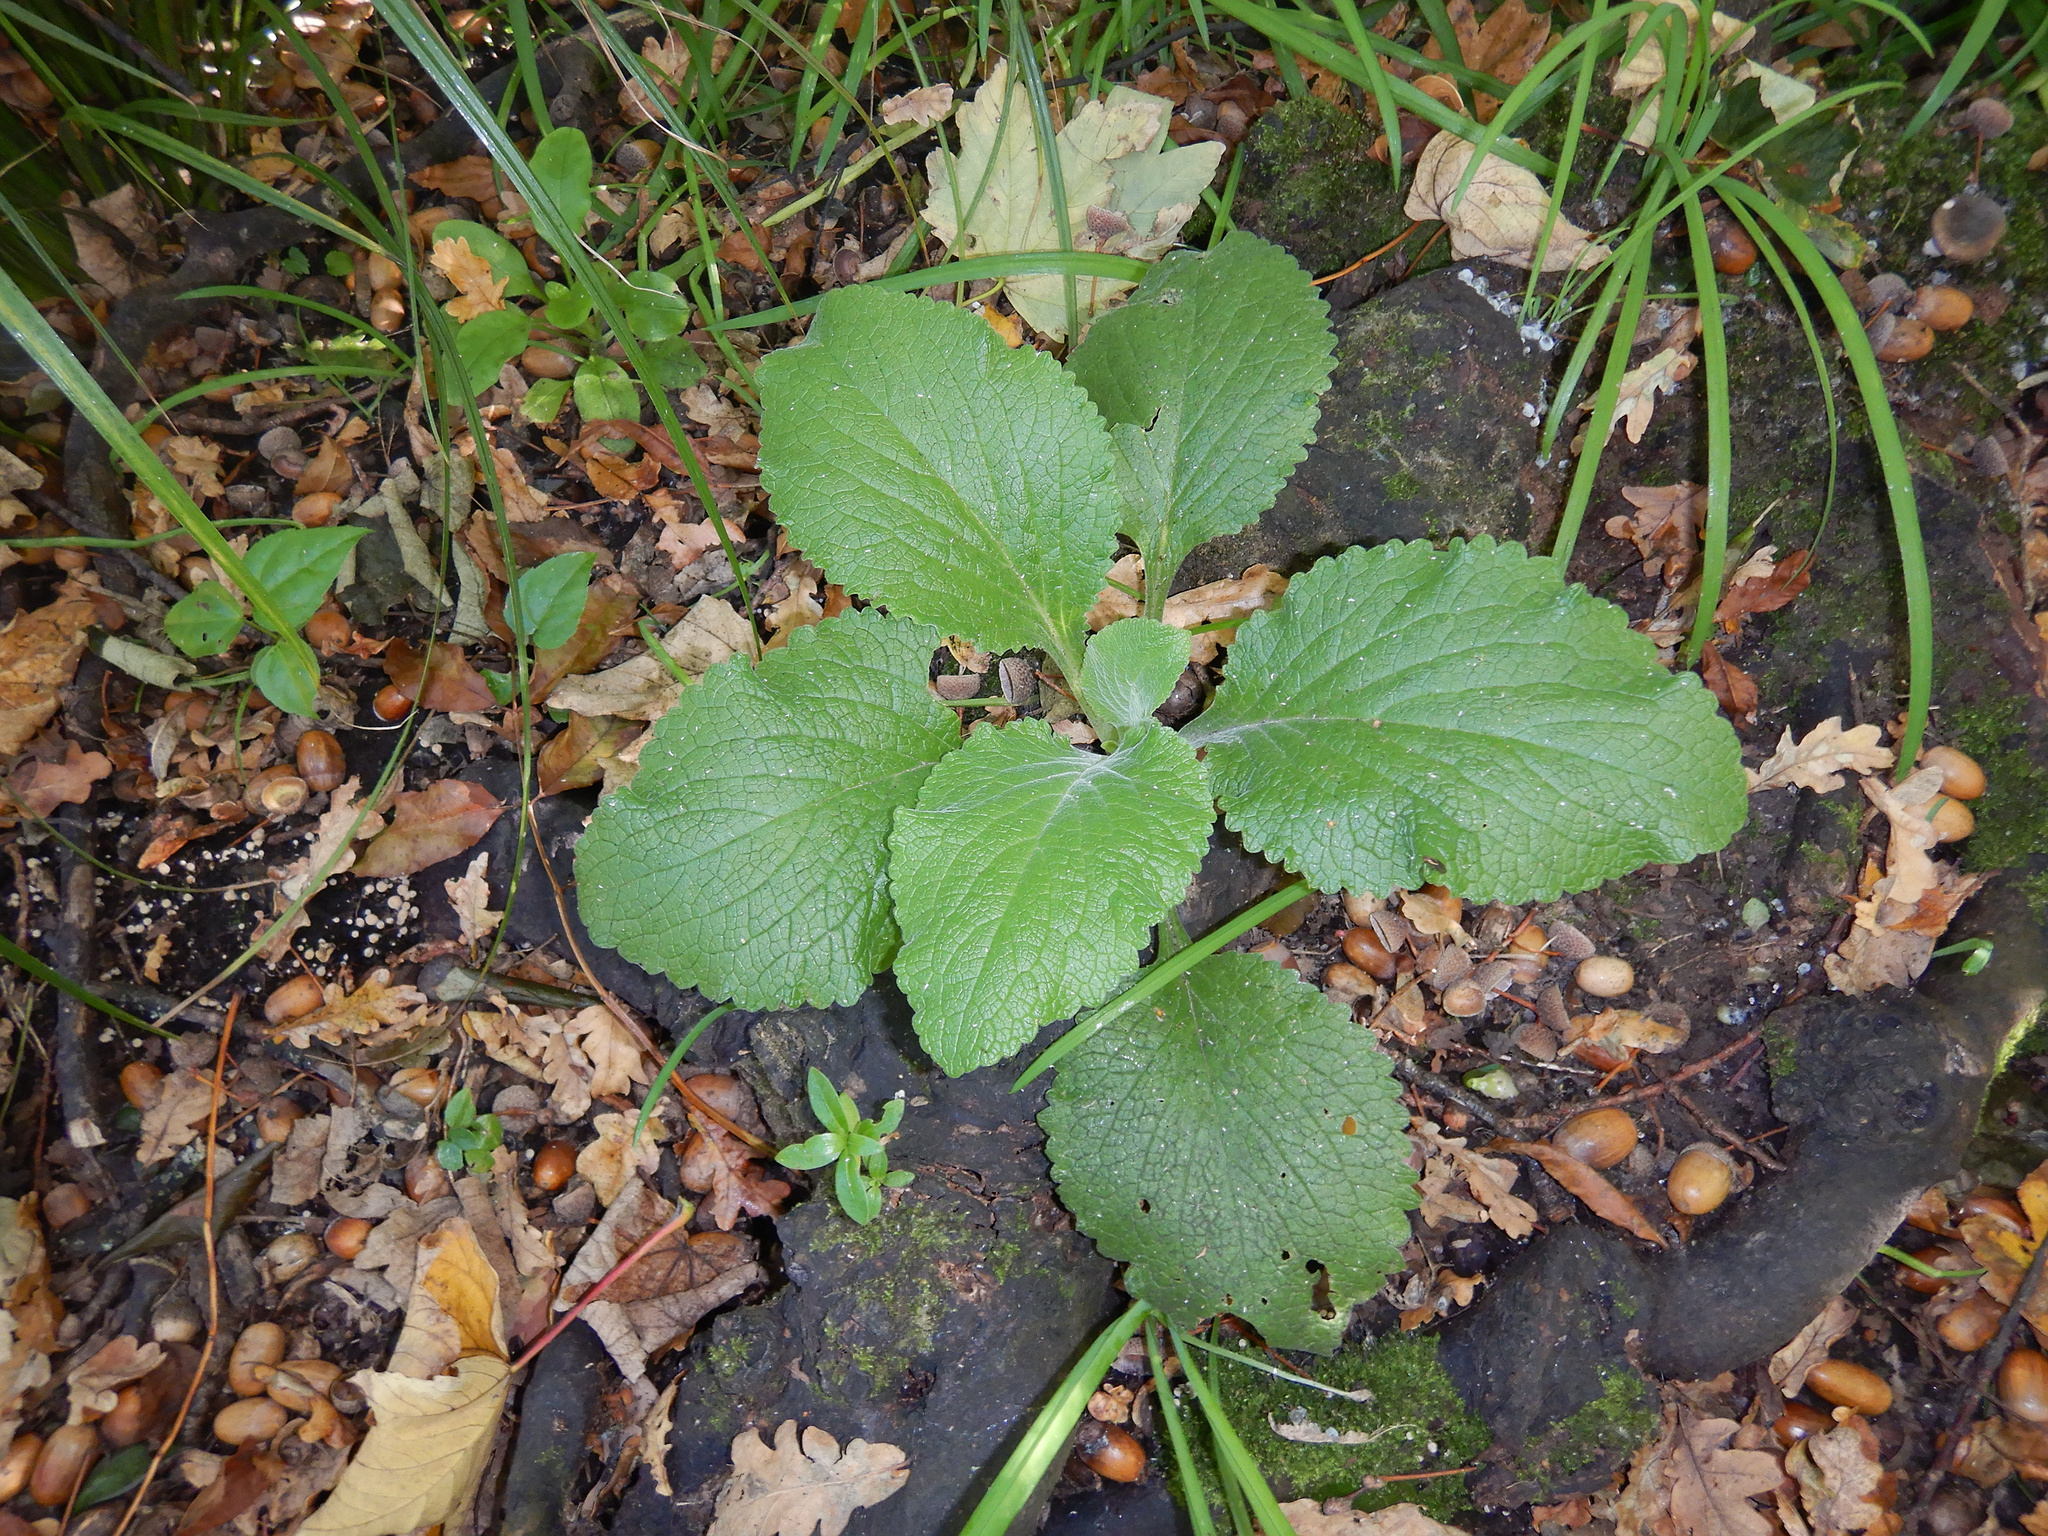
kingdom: Plantae
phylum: Tracheophyta
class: Magnoliopsida
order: Lamiales
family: Plantaginaceae
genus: Digitalis
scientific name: Digitalis purpurea
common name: Foxglove
